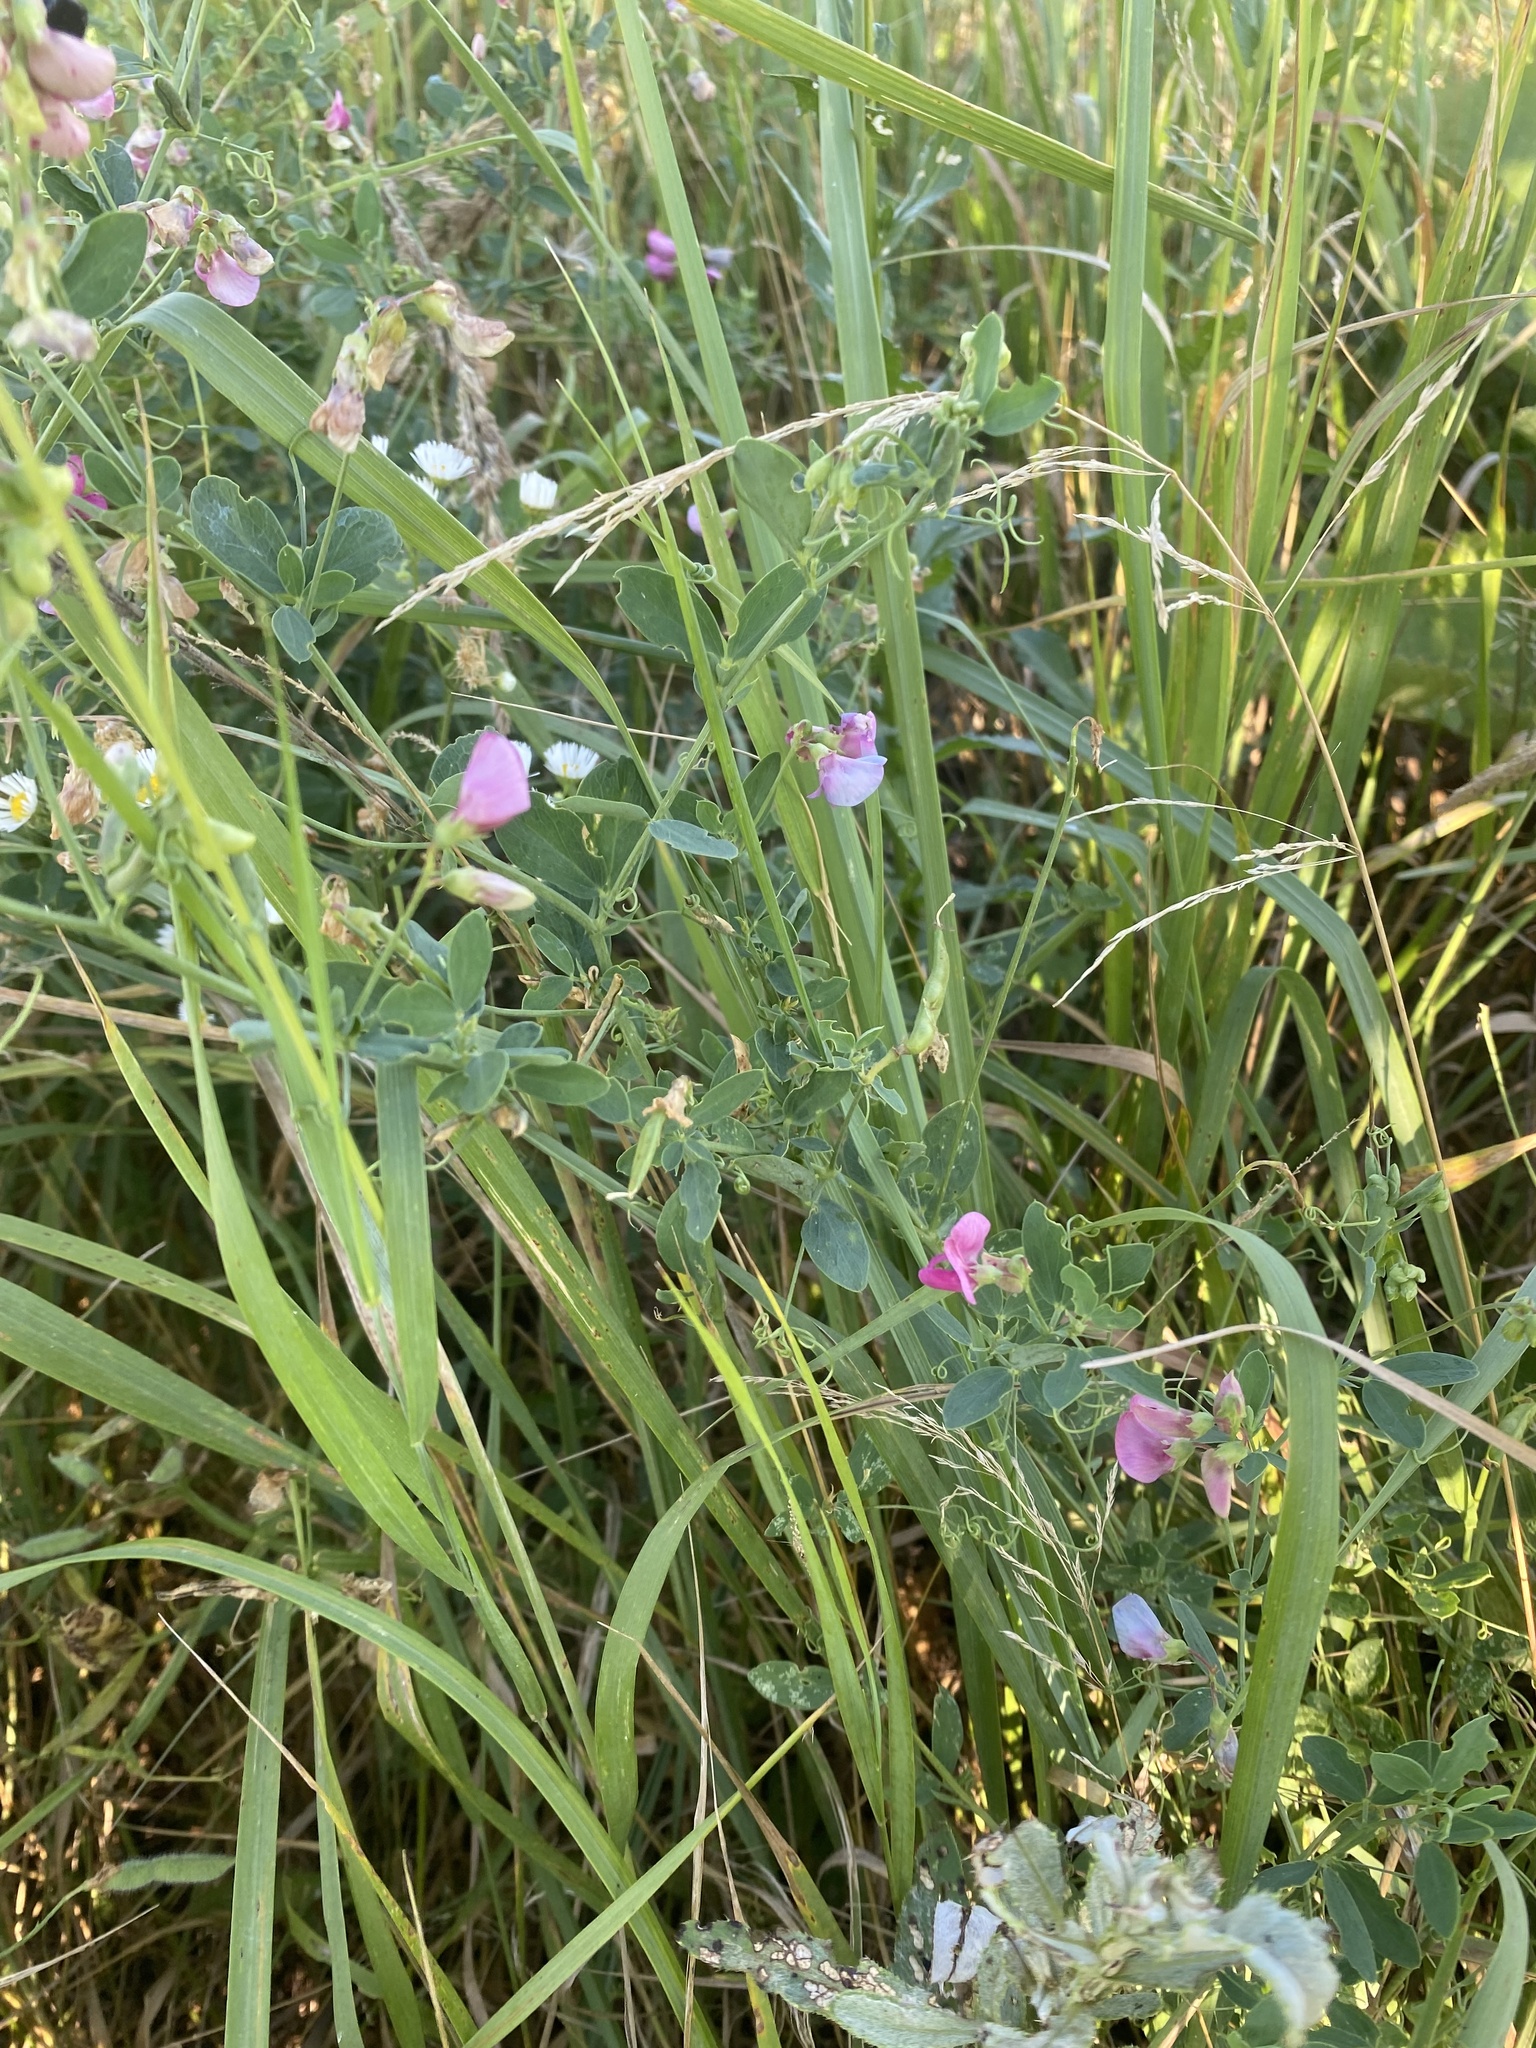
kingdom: Plantae
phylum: Tracheophyta
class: Magnoliopsida
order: Fabales
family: Fabaceae
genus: Lathyrus
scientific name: Lathyrus tuberosus
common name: Tuberous pea
